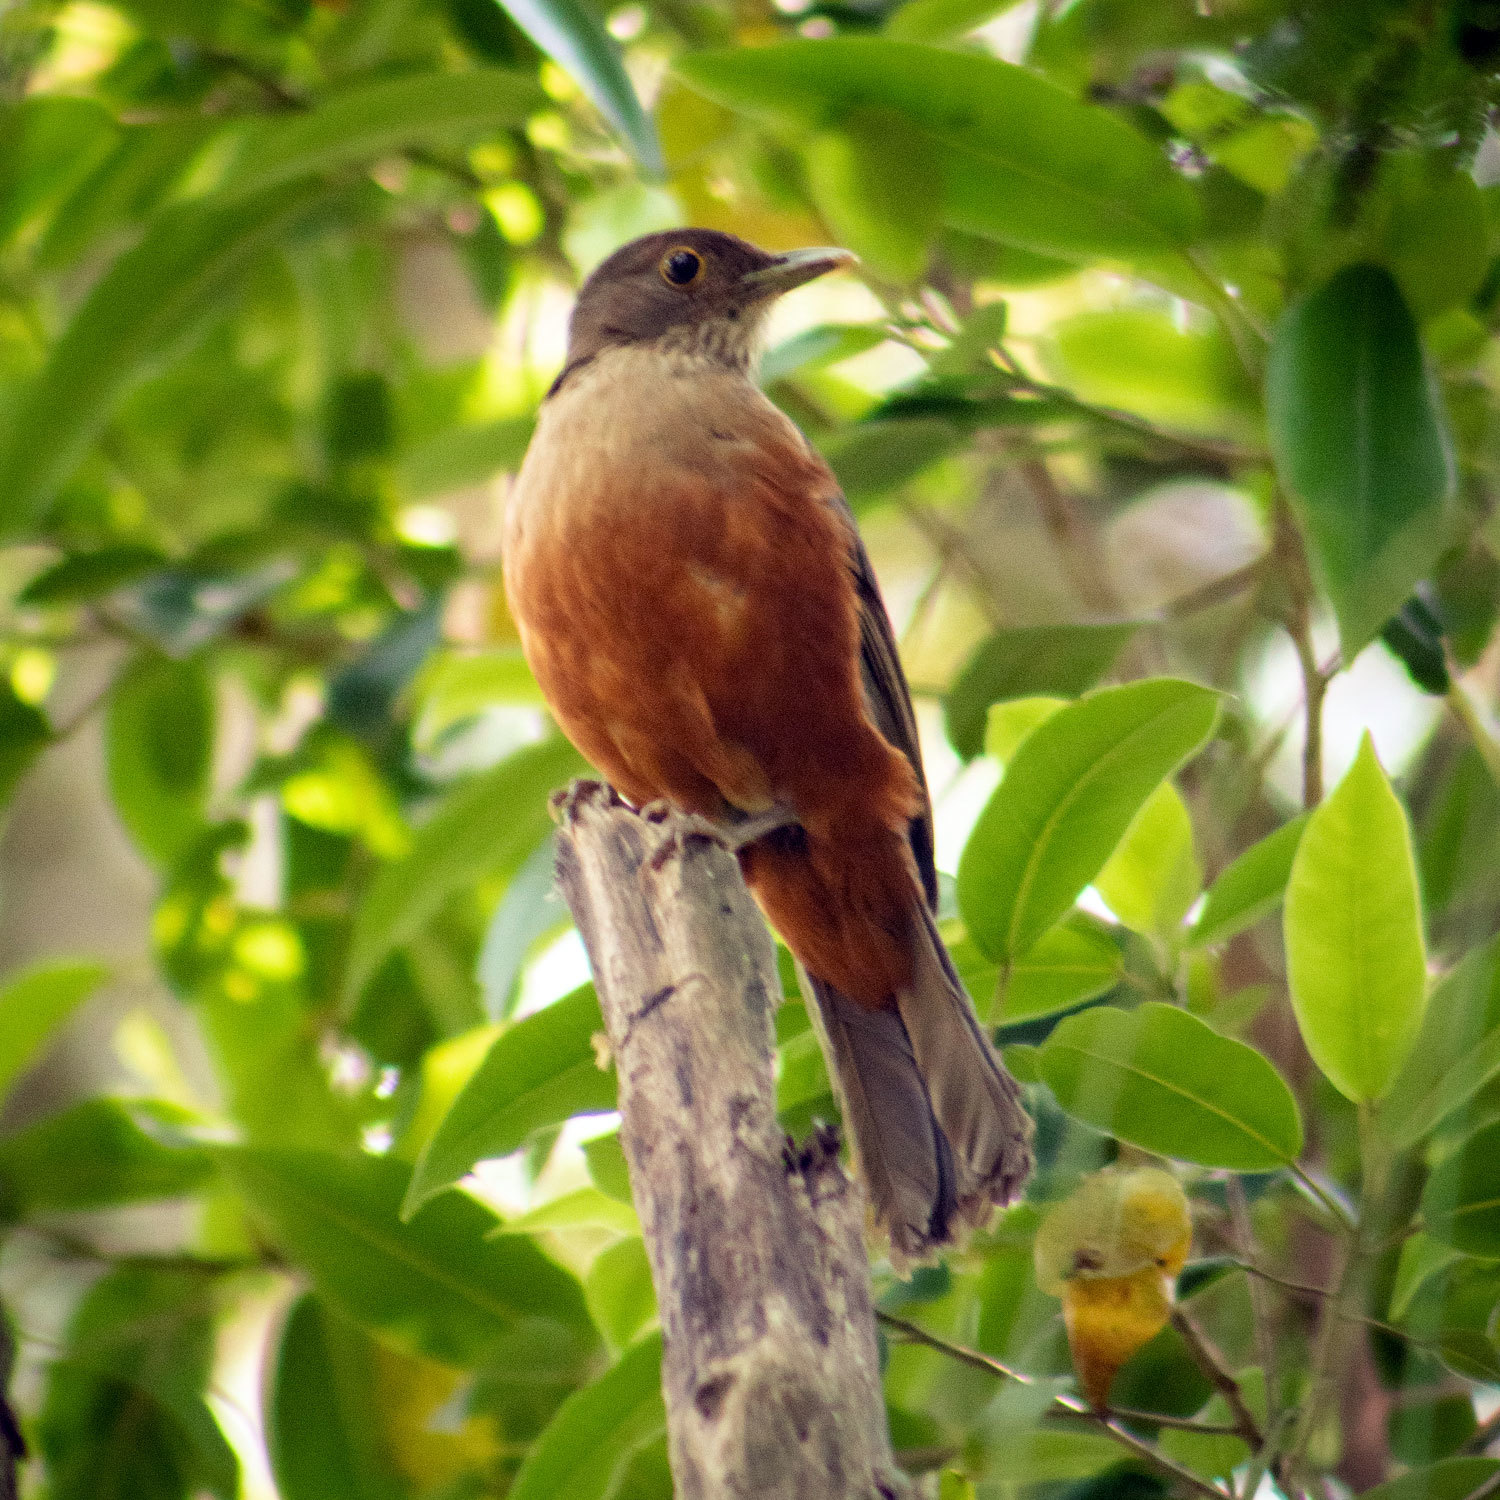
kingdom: Animalia
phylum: Chordata
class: Aves
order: Passeriformes
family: Turdidae
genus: Turdus
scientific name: Turdus rufiventris
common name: Rufous-bellied thrush
